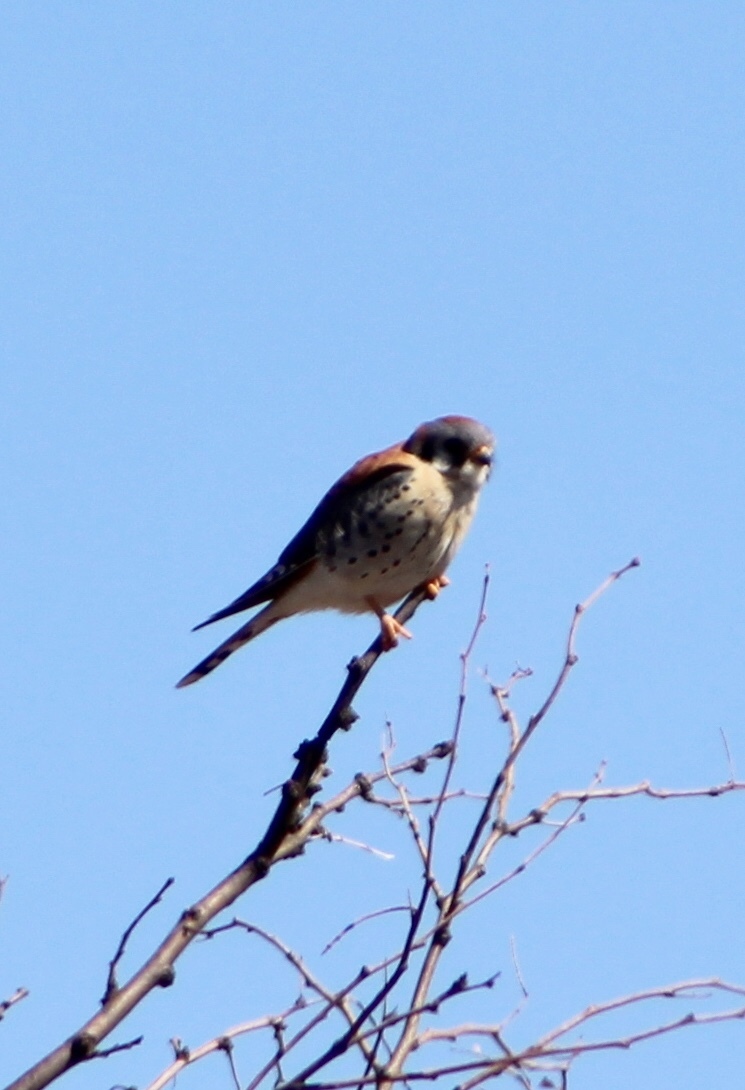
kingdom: Animalia
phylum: Chordata
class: Aves
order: Falconiformes
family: Falconidae
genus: Falco
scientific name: Falco sparverius
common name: American kestrel
